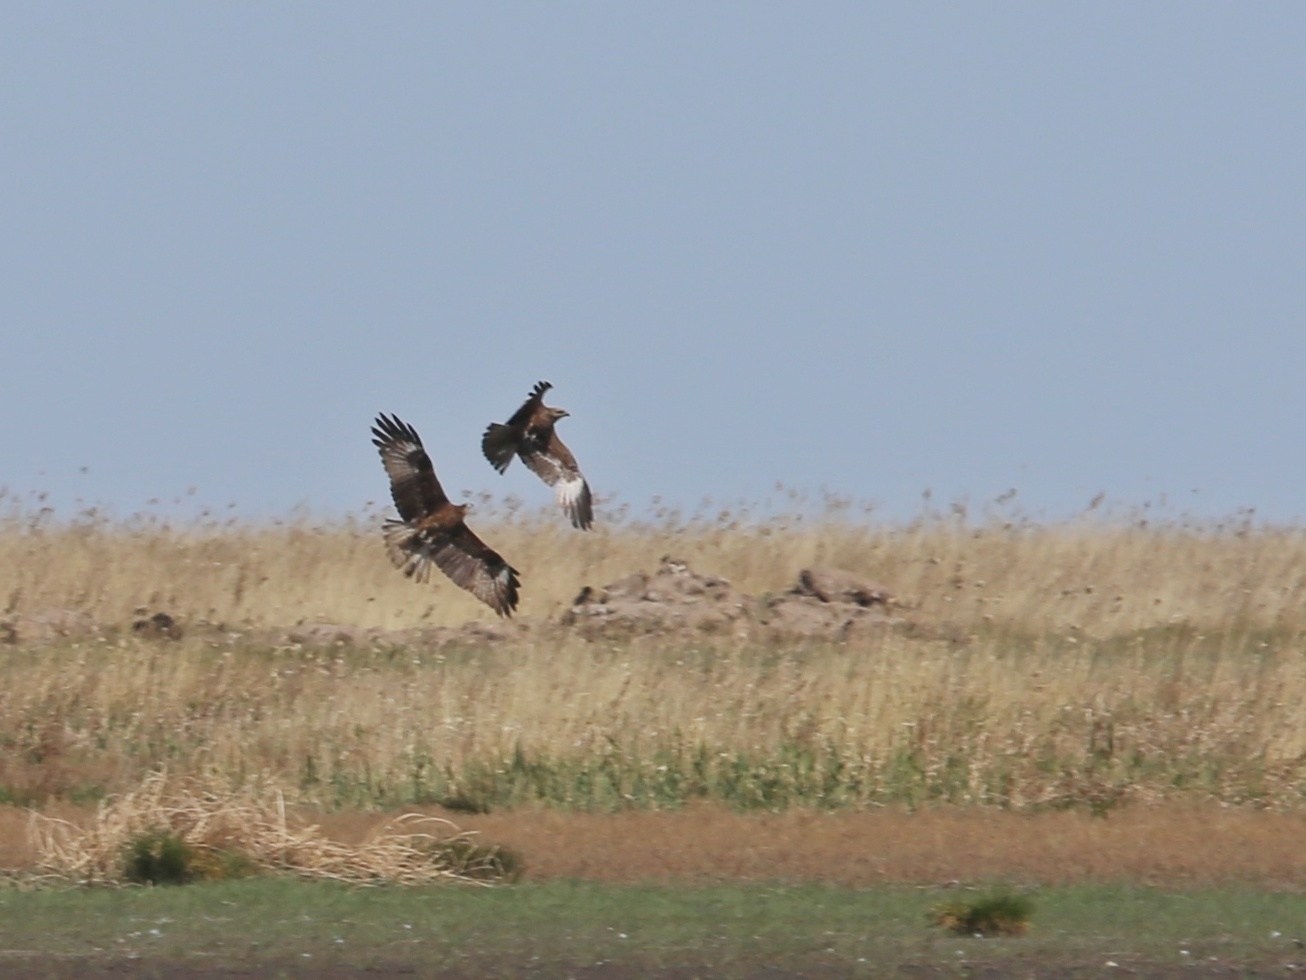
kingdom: Animalia
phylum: Chordata
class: Aves
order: Accipitriformes
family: Accipitridae
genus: Circus
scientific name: Circus aeruginosus
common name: Western marsh harrier
